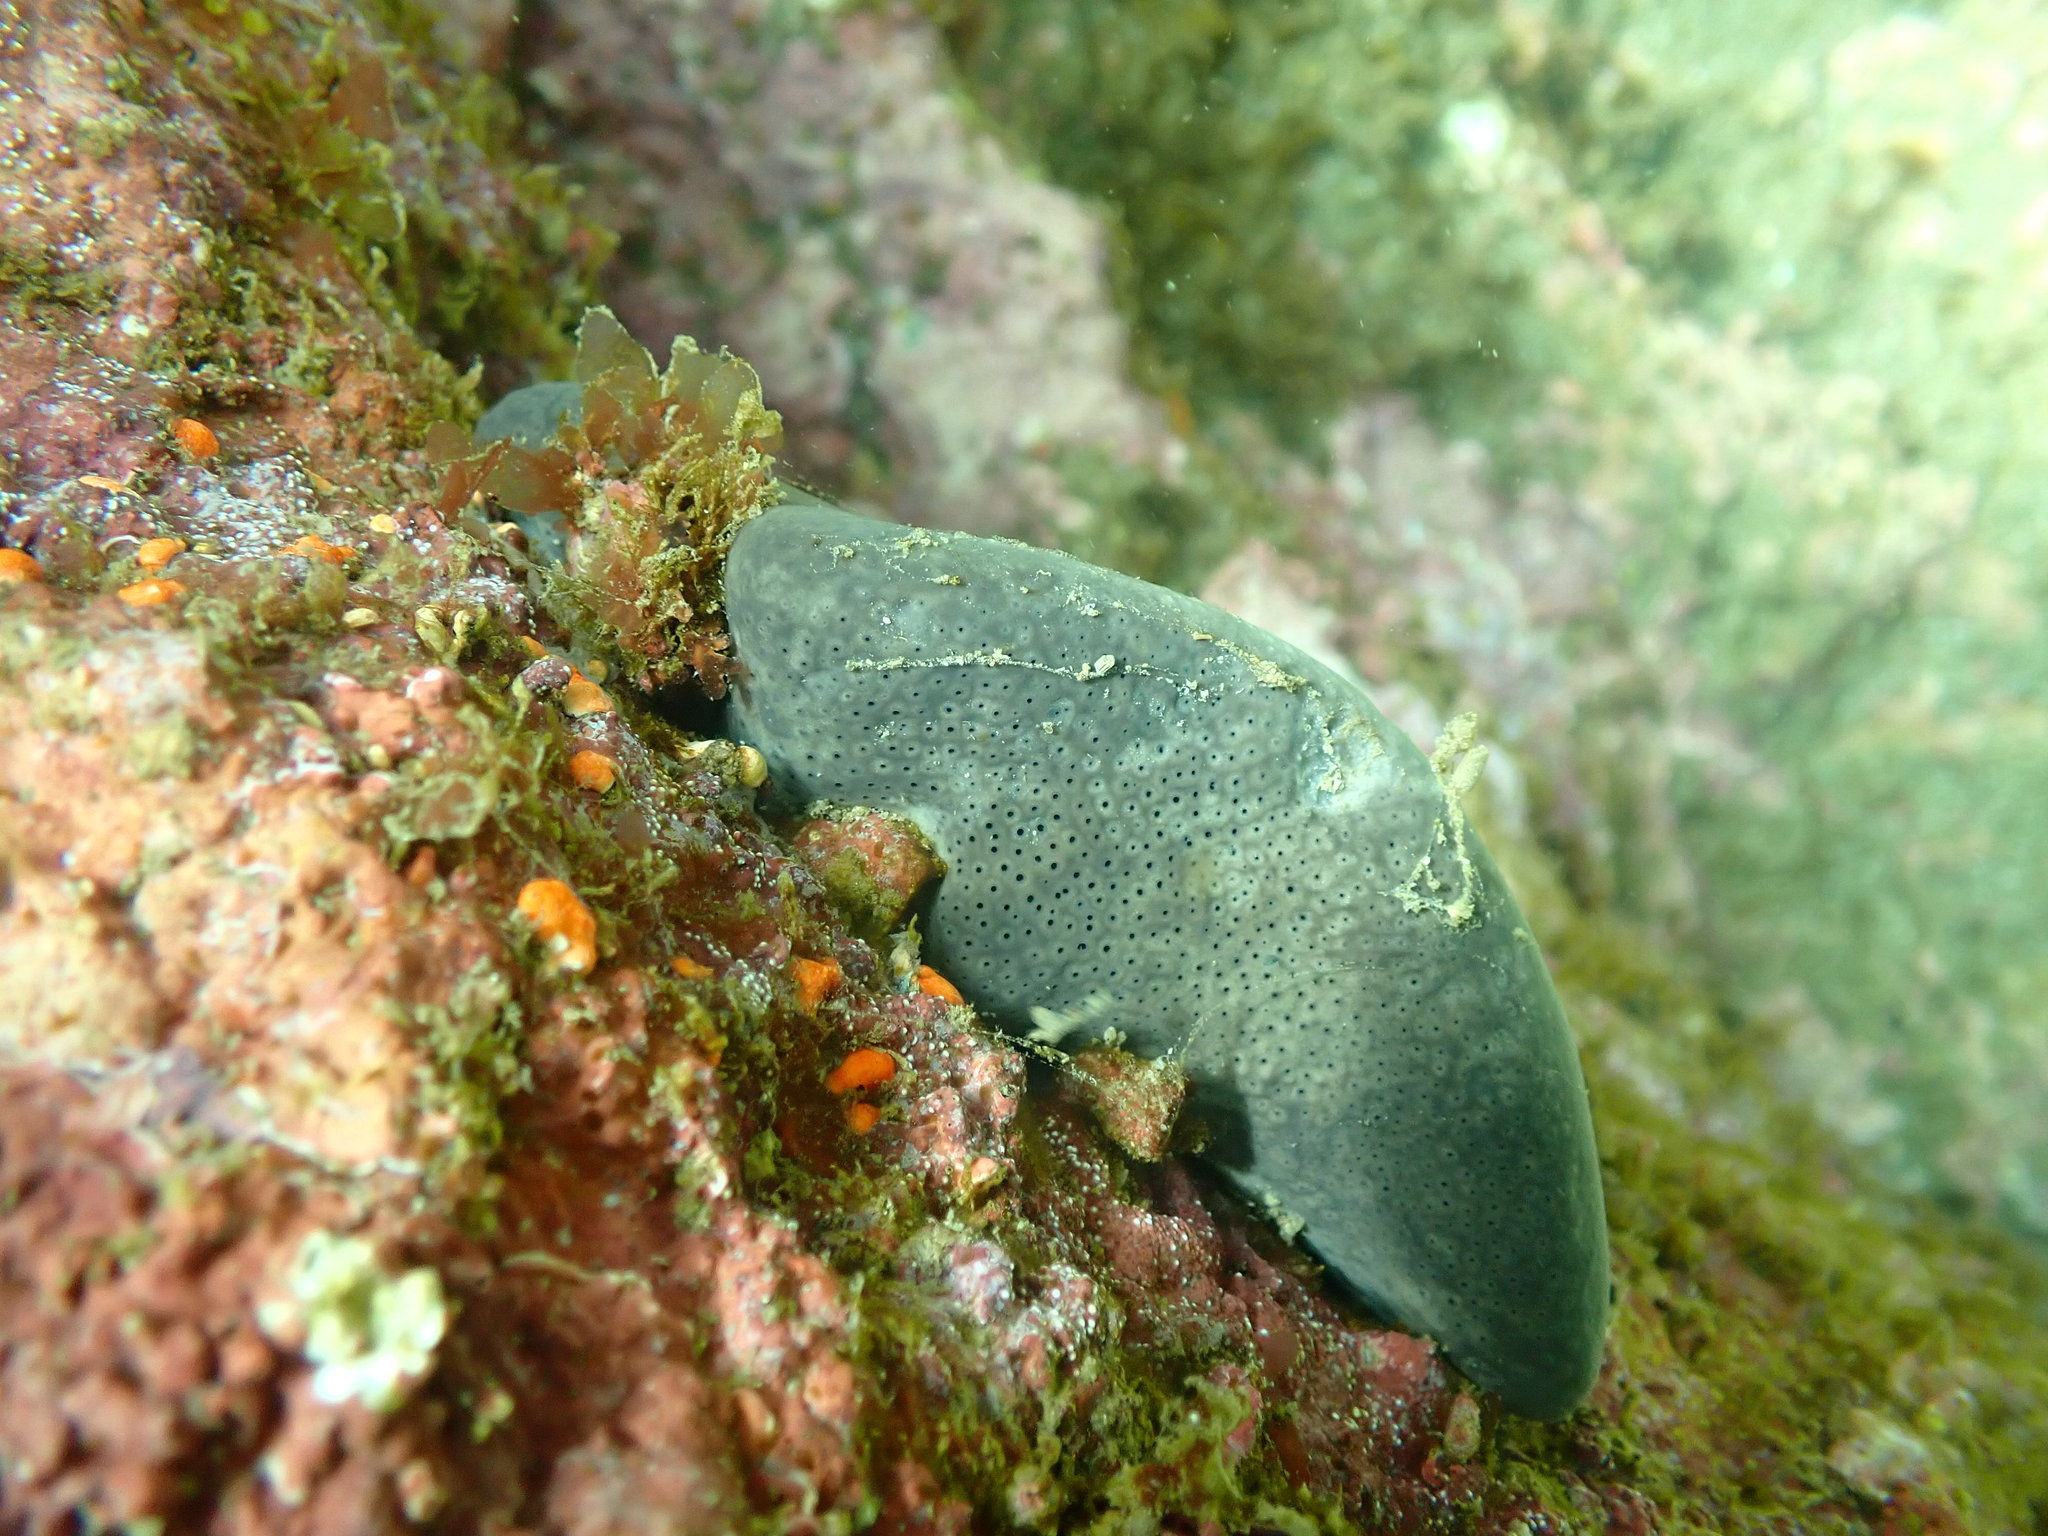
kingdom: Animalia
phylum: Porifera
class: Demospongiae
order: Dictyoceratida
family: Irciniidae
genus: Psammocinia
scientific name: Psammocinia hawere
